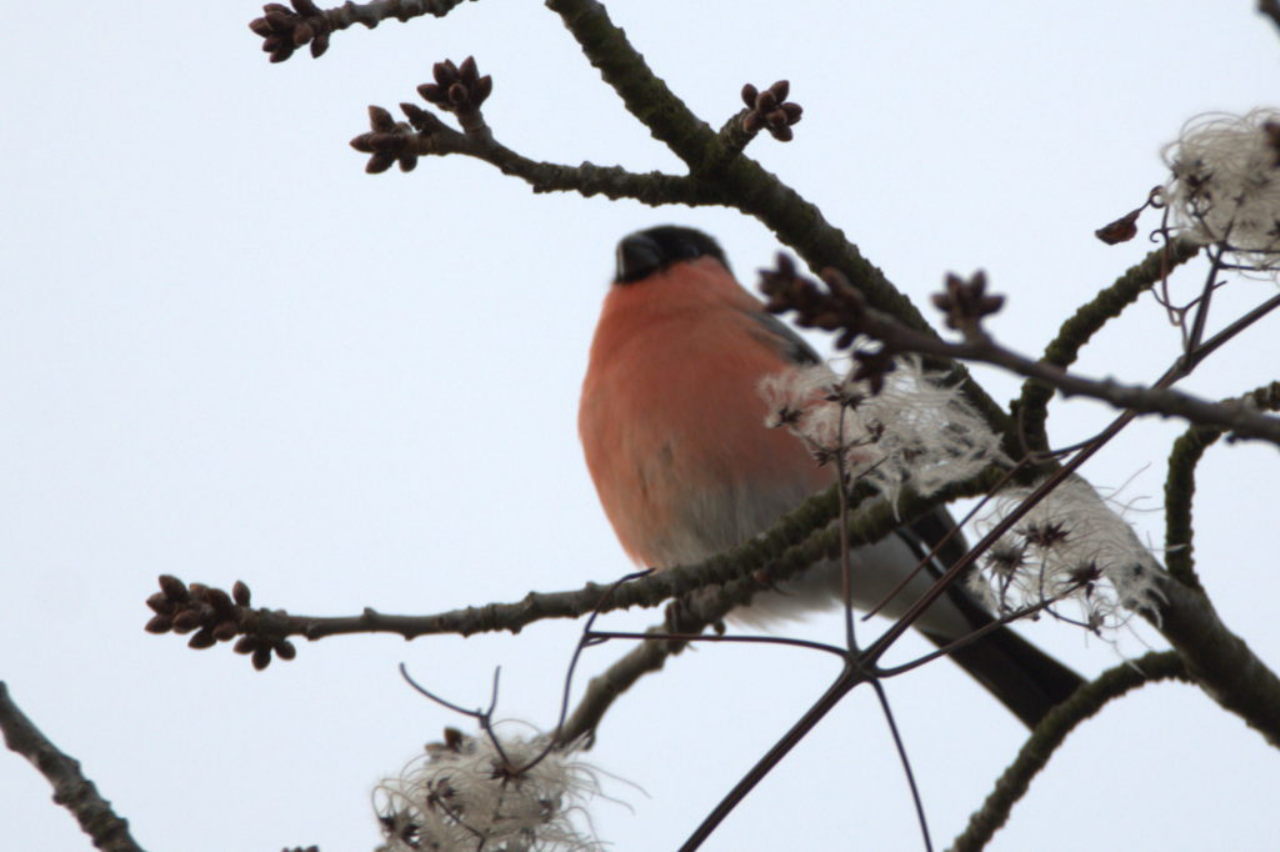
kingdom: Animalia
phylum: Chordata
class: Aves
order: Passeriformes
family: Fringillidae
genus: Pyrrhula
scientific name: Pyrrhula pyrrhula
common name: Eurasian bullfinch
